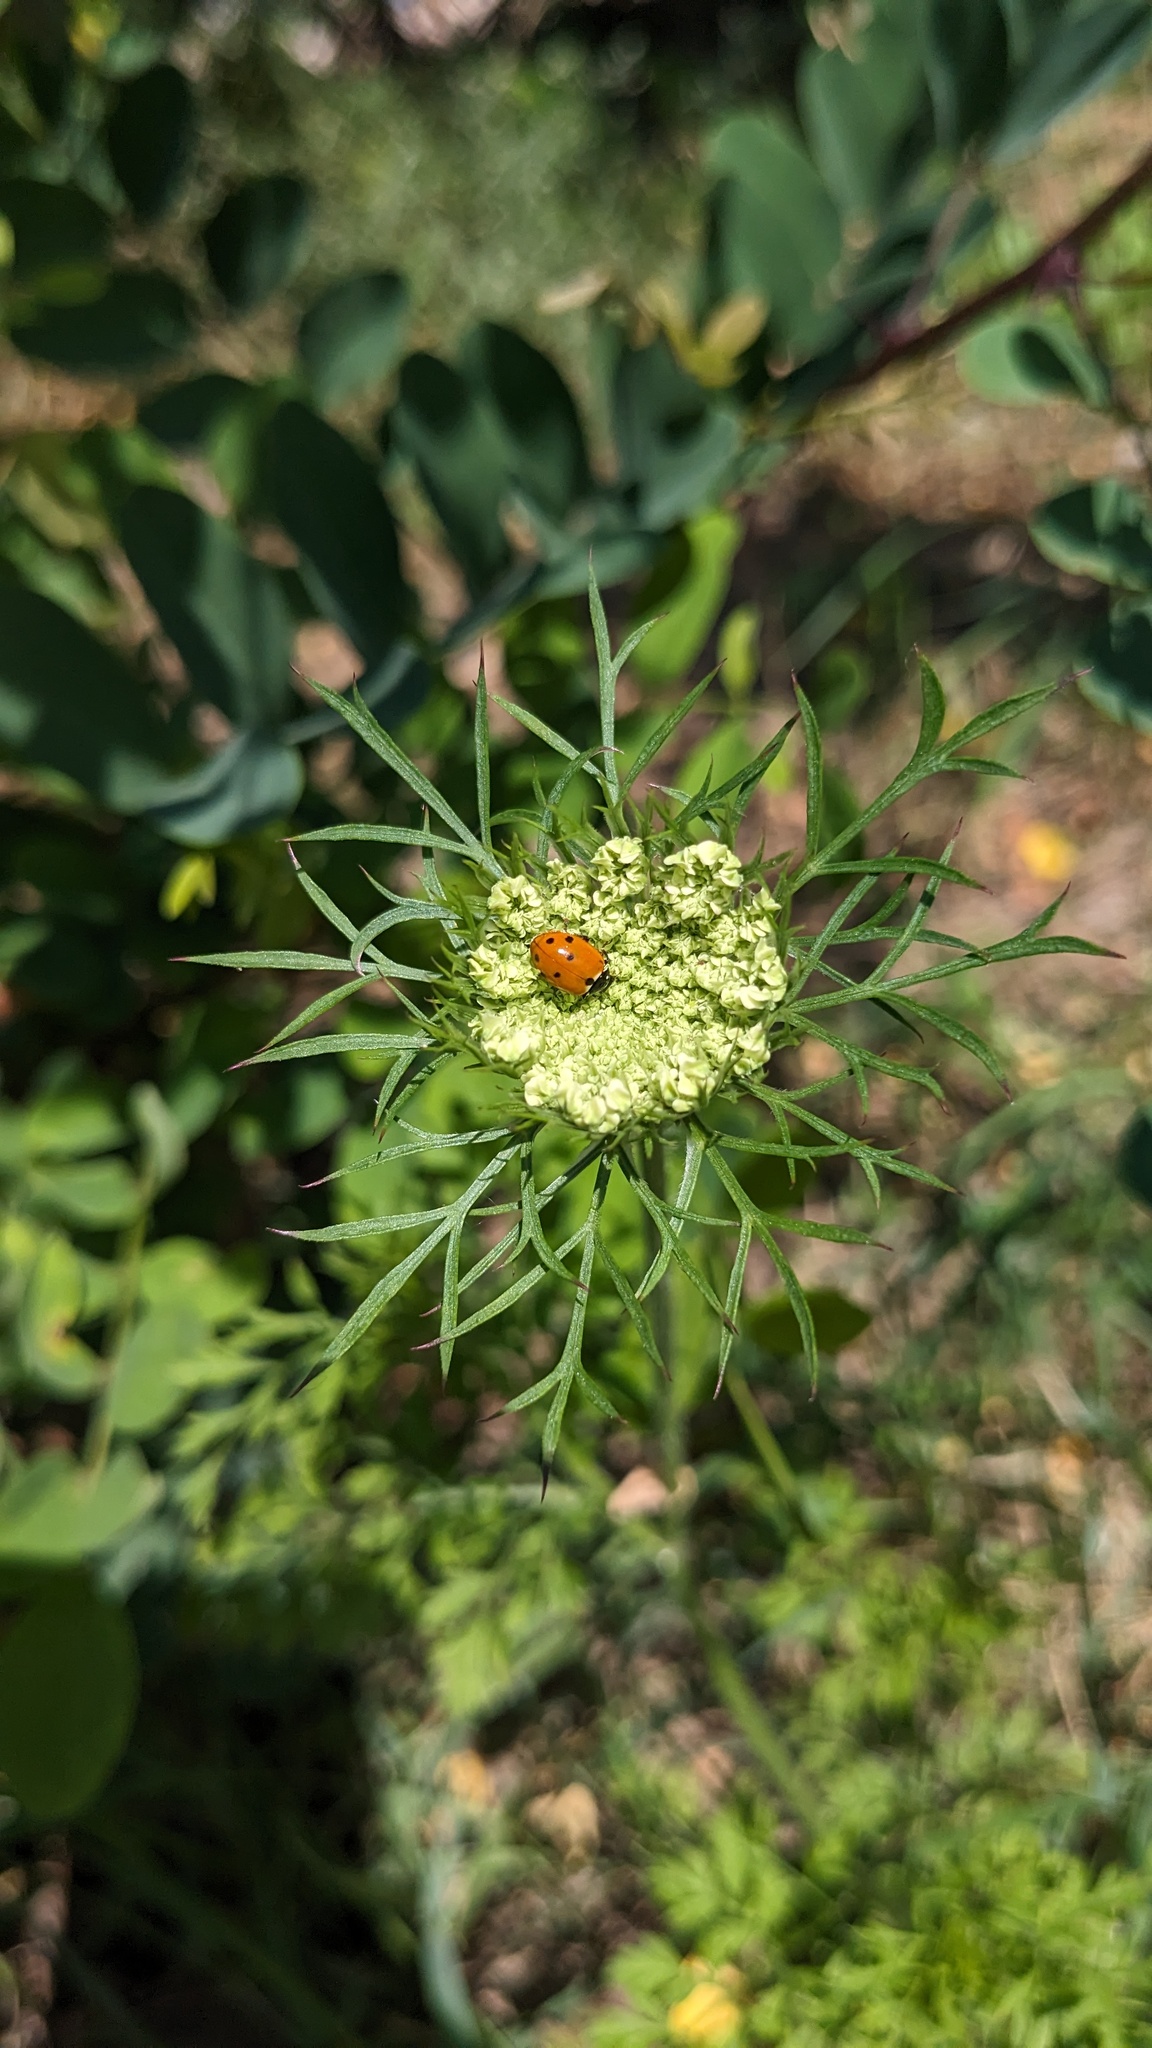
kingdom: Plantae
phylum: Tracheophyta
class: Magnoliopsida
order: Apiales
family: Apiaceae
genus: Daucus
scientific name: Daucus carota
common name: Wild carrot
